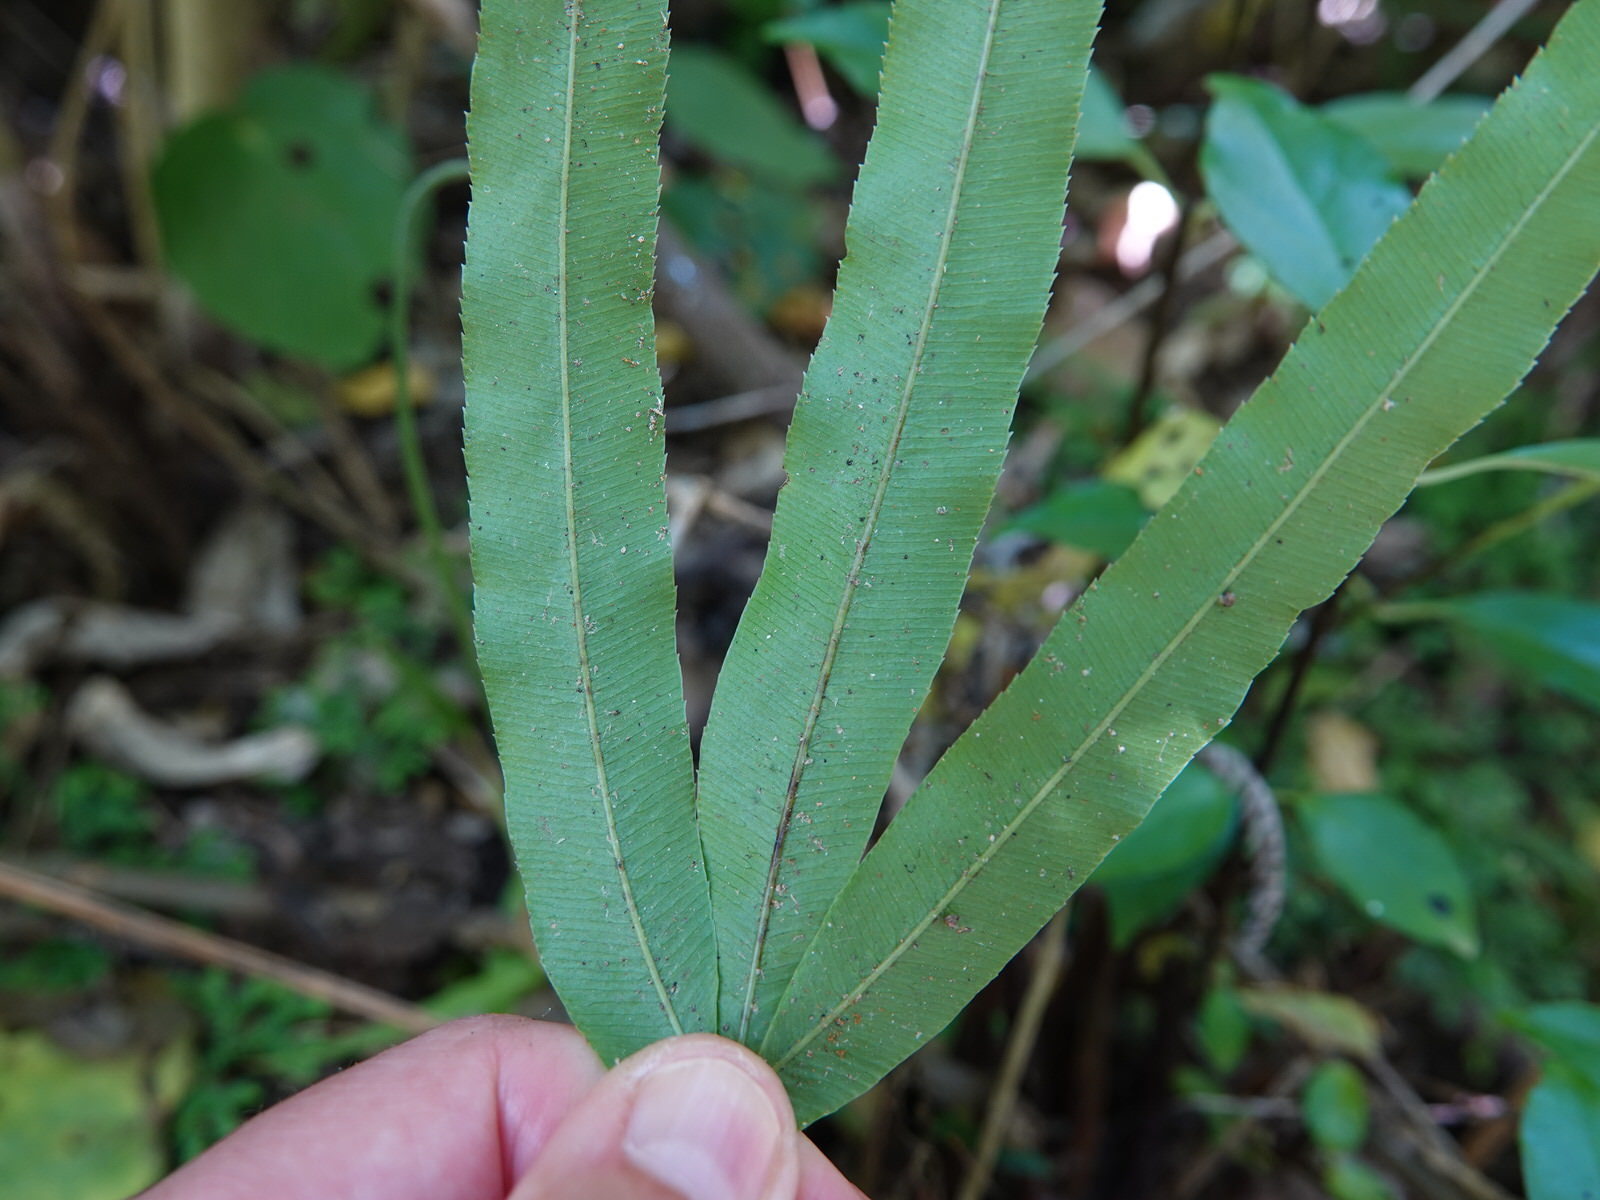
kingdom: Plantae
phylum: Tracheophyta
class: Polypodiopsida
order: Polypodiales
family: Pteridaceae
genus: Pteris
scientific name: Pteris cretica
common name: Ribbon fern
